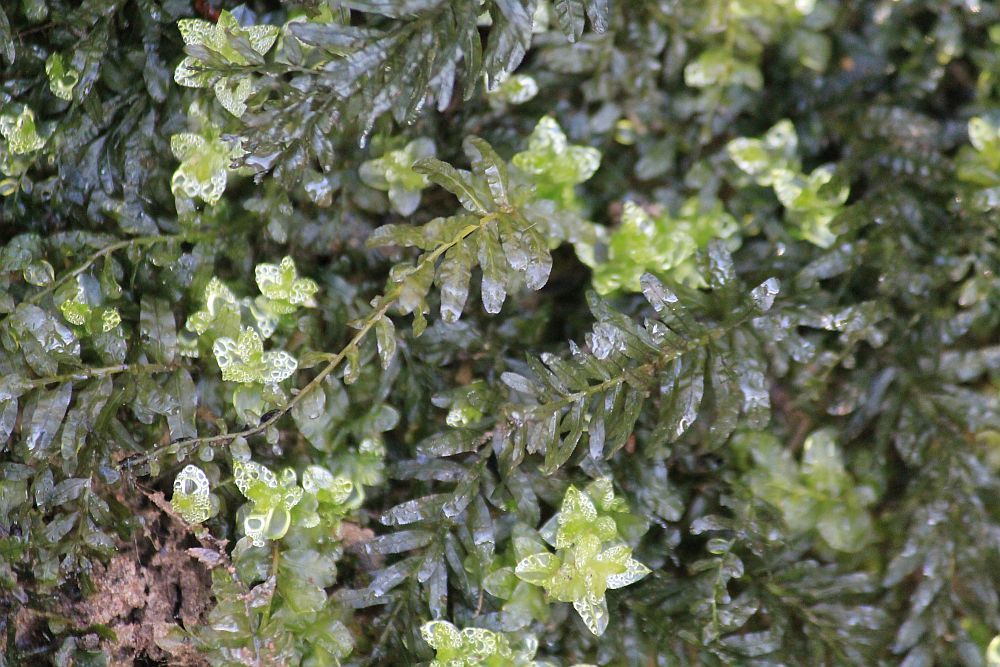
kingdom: Plantae
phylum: Bryophyta
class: Bryopsida
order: Bryales
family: Mniaceae
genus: Plagiomnium
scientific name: Plagiomnium undulatum
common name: Hart's-tongue thyme-moss
